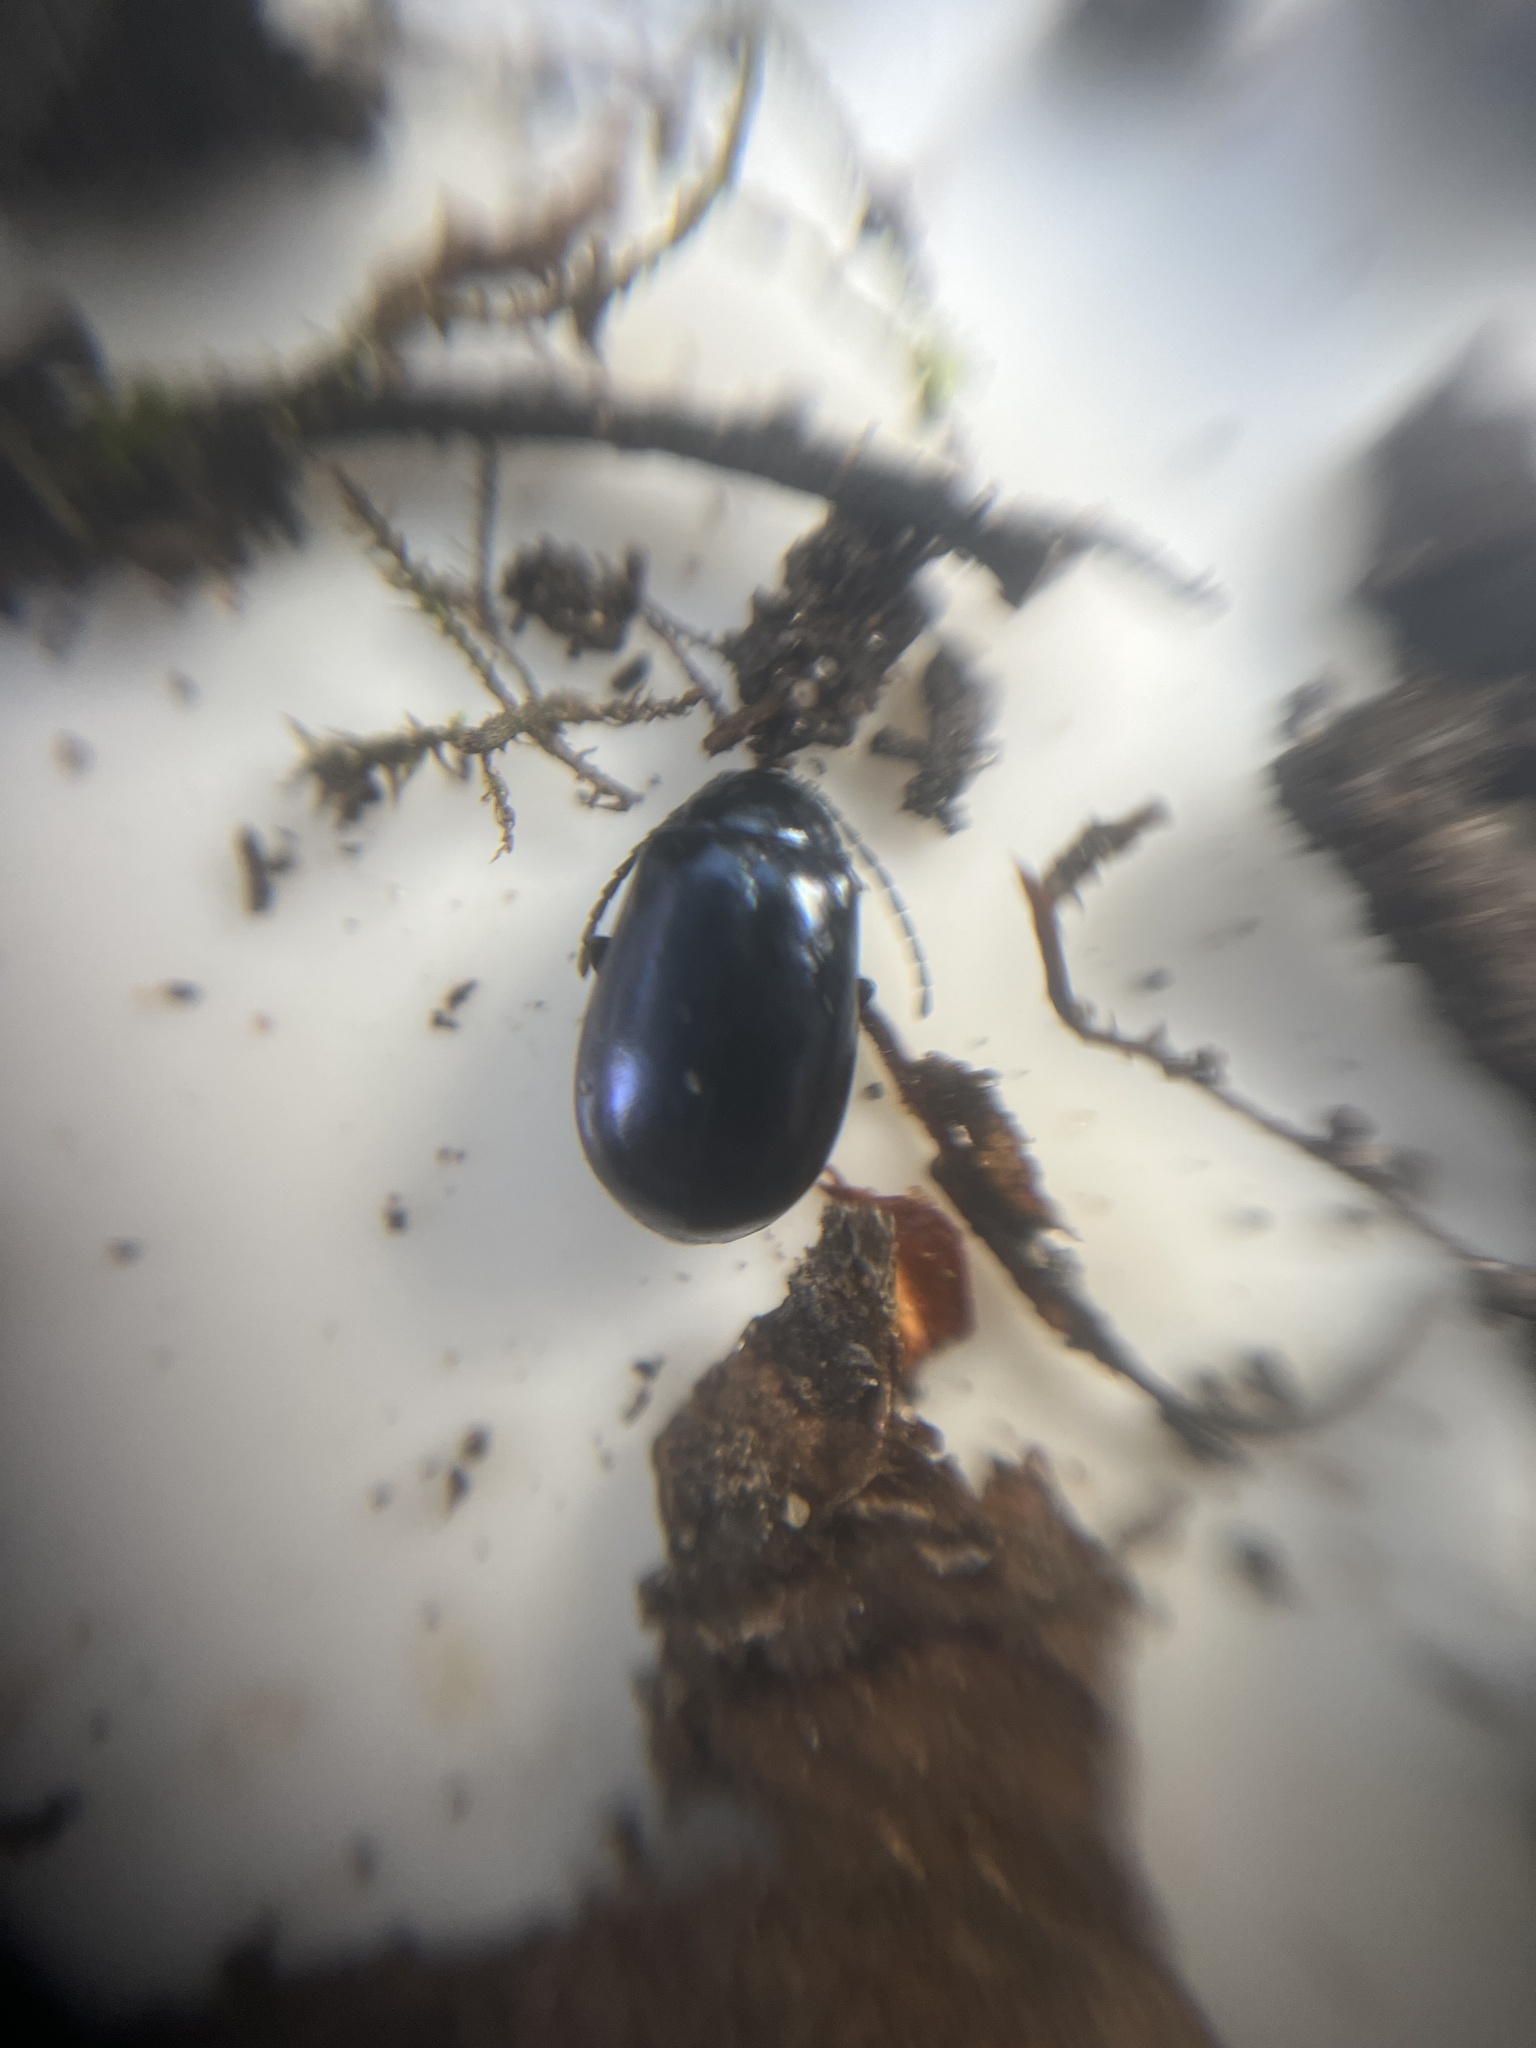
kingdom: Animalia
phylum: Arthropoda
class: Insecta
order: Coleoptera
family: Chrysomelidae
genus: Agelastica
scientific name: Agelastica alni
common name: Alder leaf beetle
